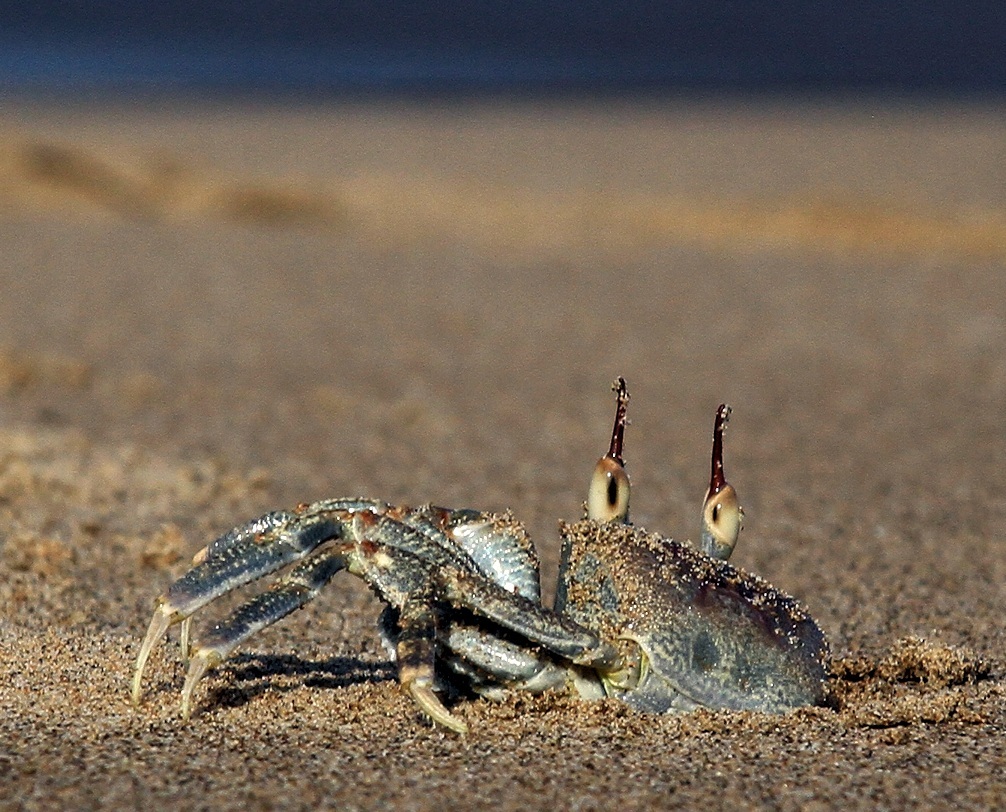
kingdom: Animalia
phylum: Arthropoda
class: Malacostraca
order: Decapoda
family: Ocypodidae
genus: Ocypode
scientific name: Ocypode ceratophthalmus
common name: Indo-pacific ghost crab
